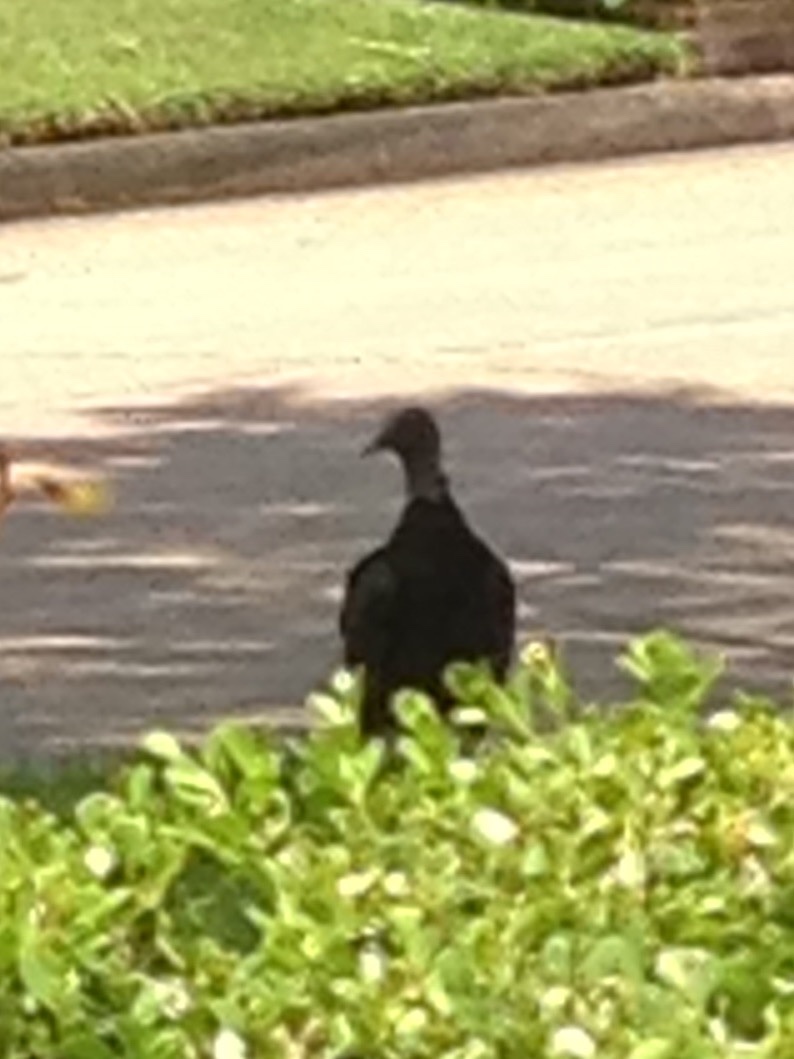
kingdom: Animalia
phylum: Chordata
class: Aves
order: Accipitriformes
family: Cathartidae
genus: Coragyps
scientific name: Coragyps atratus
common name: Black vulture
